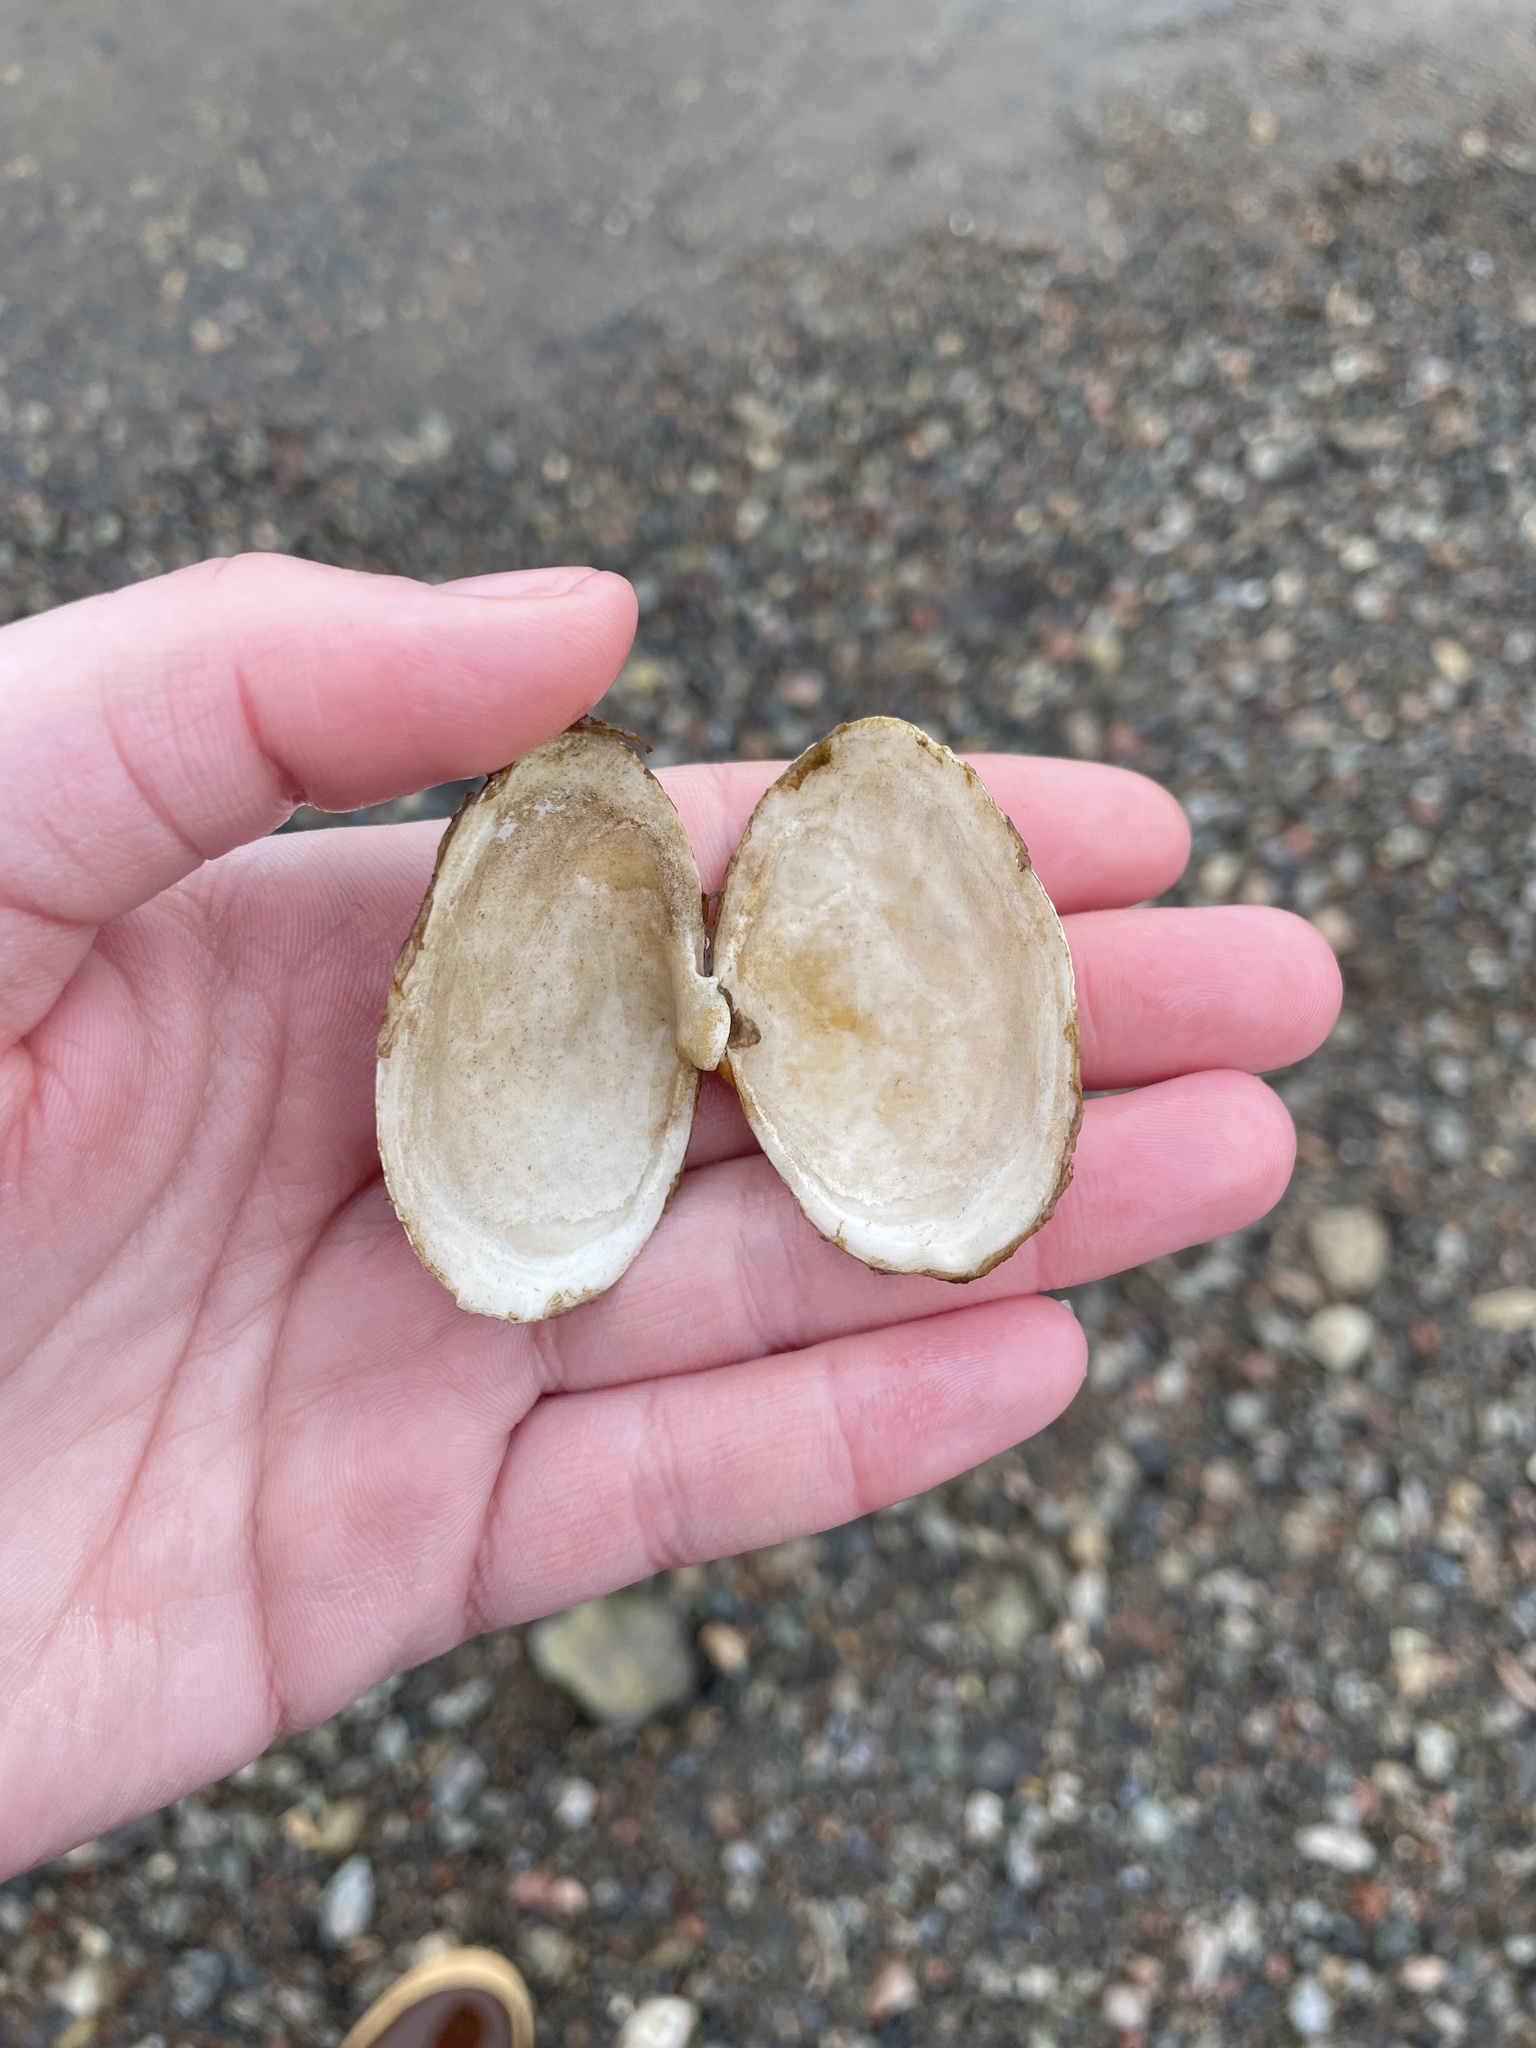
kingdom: Animalia
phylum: Mollusca
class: Bivalvia
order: Myida
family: Myidae
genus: Mya
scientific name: Mya arenaria
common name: Soft-shelled clam
